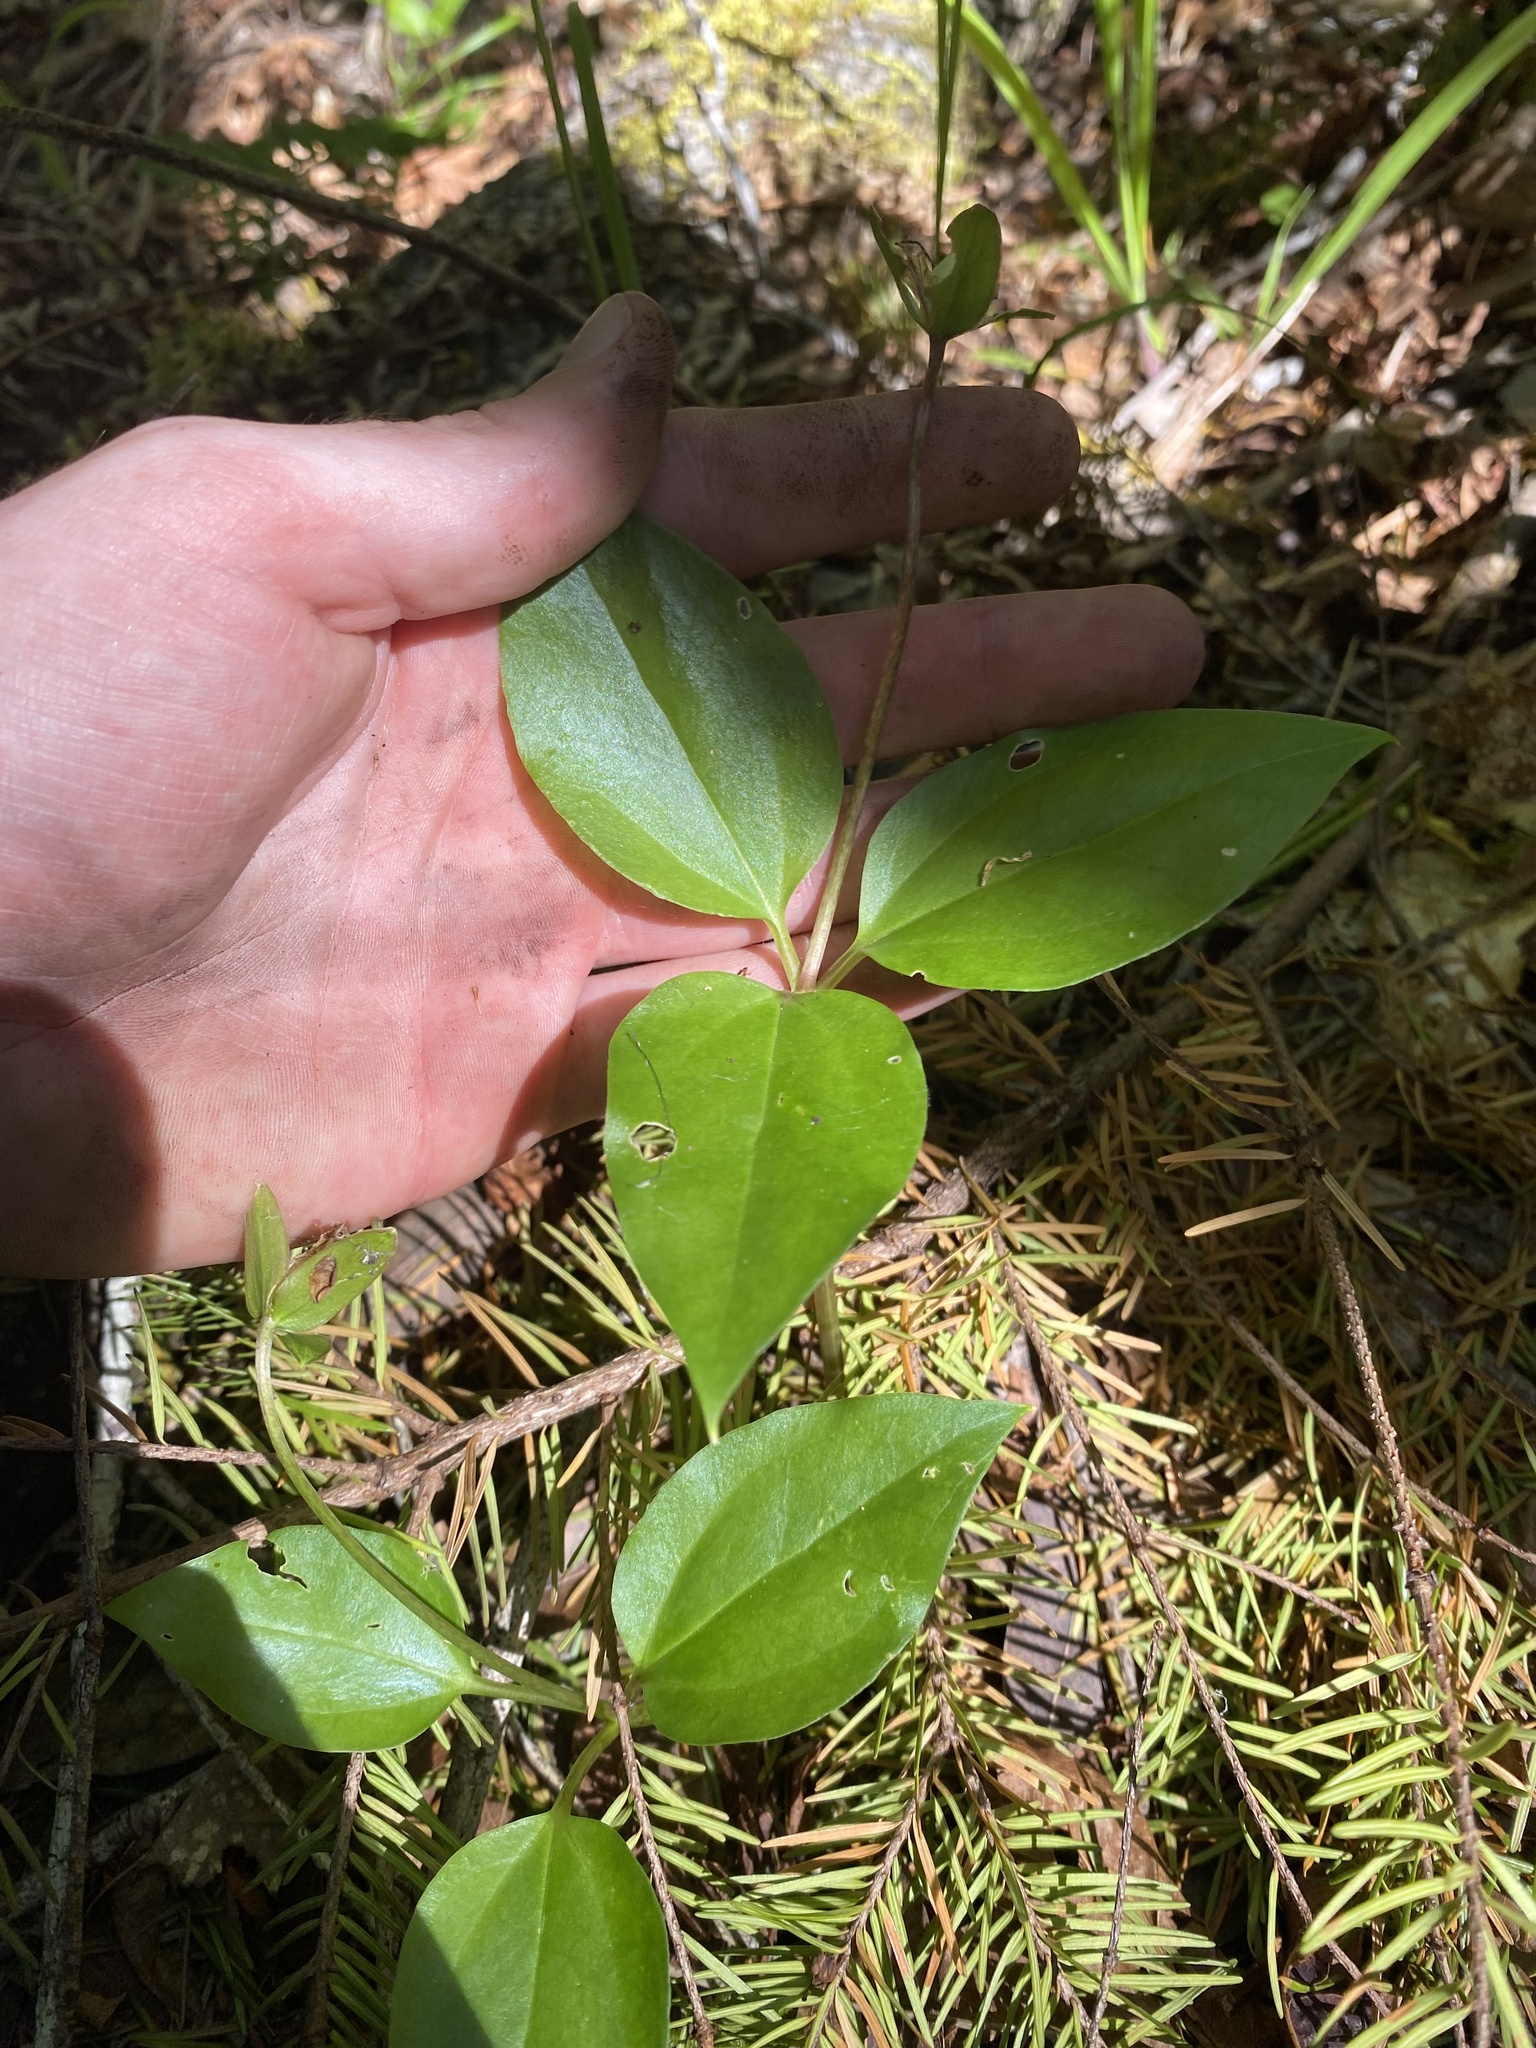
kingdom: Plantae
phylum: Tracheophyta
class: Liliopsida
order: Liliales
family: Melanthiaceae
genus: Pseudotrillium
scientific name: Pseudotrillium rivale
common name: Brook wakerobin
